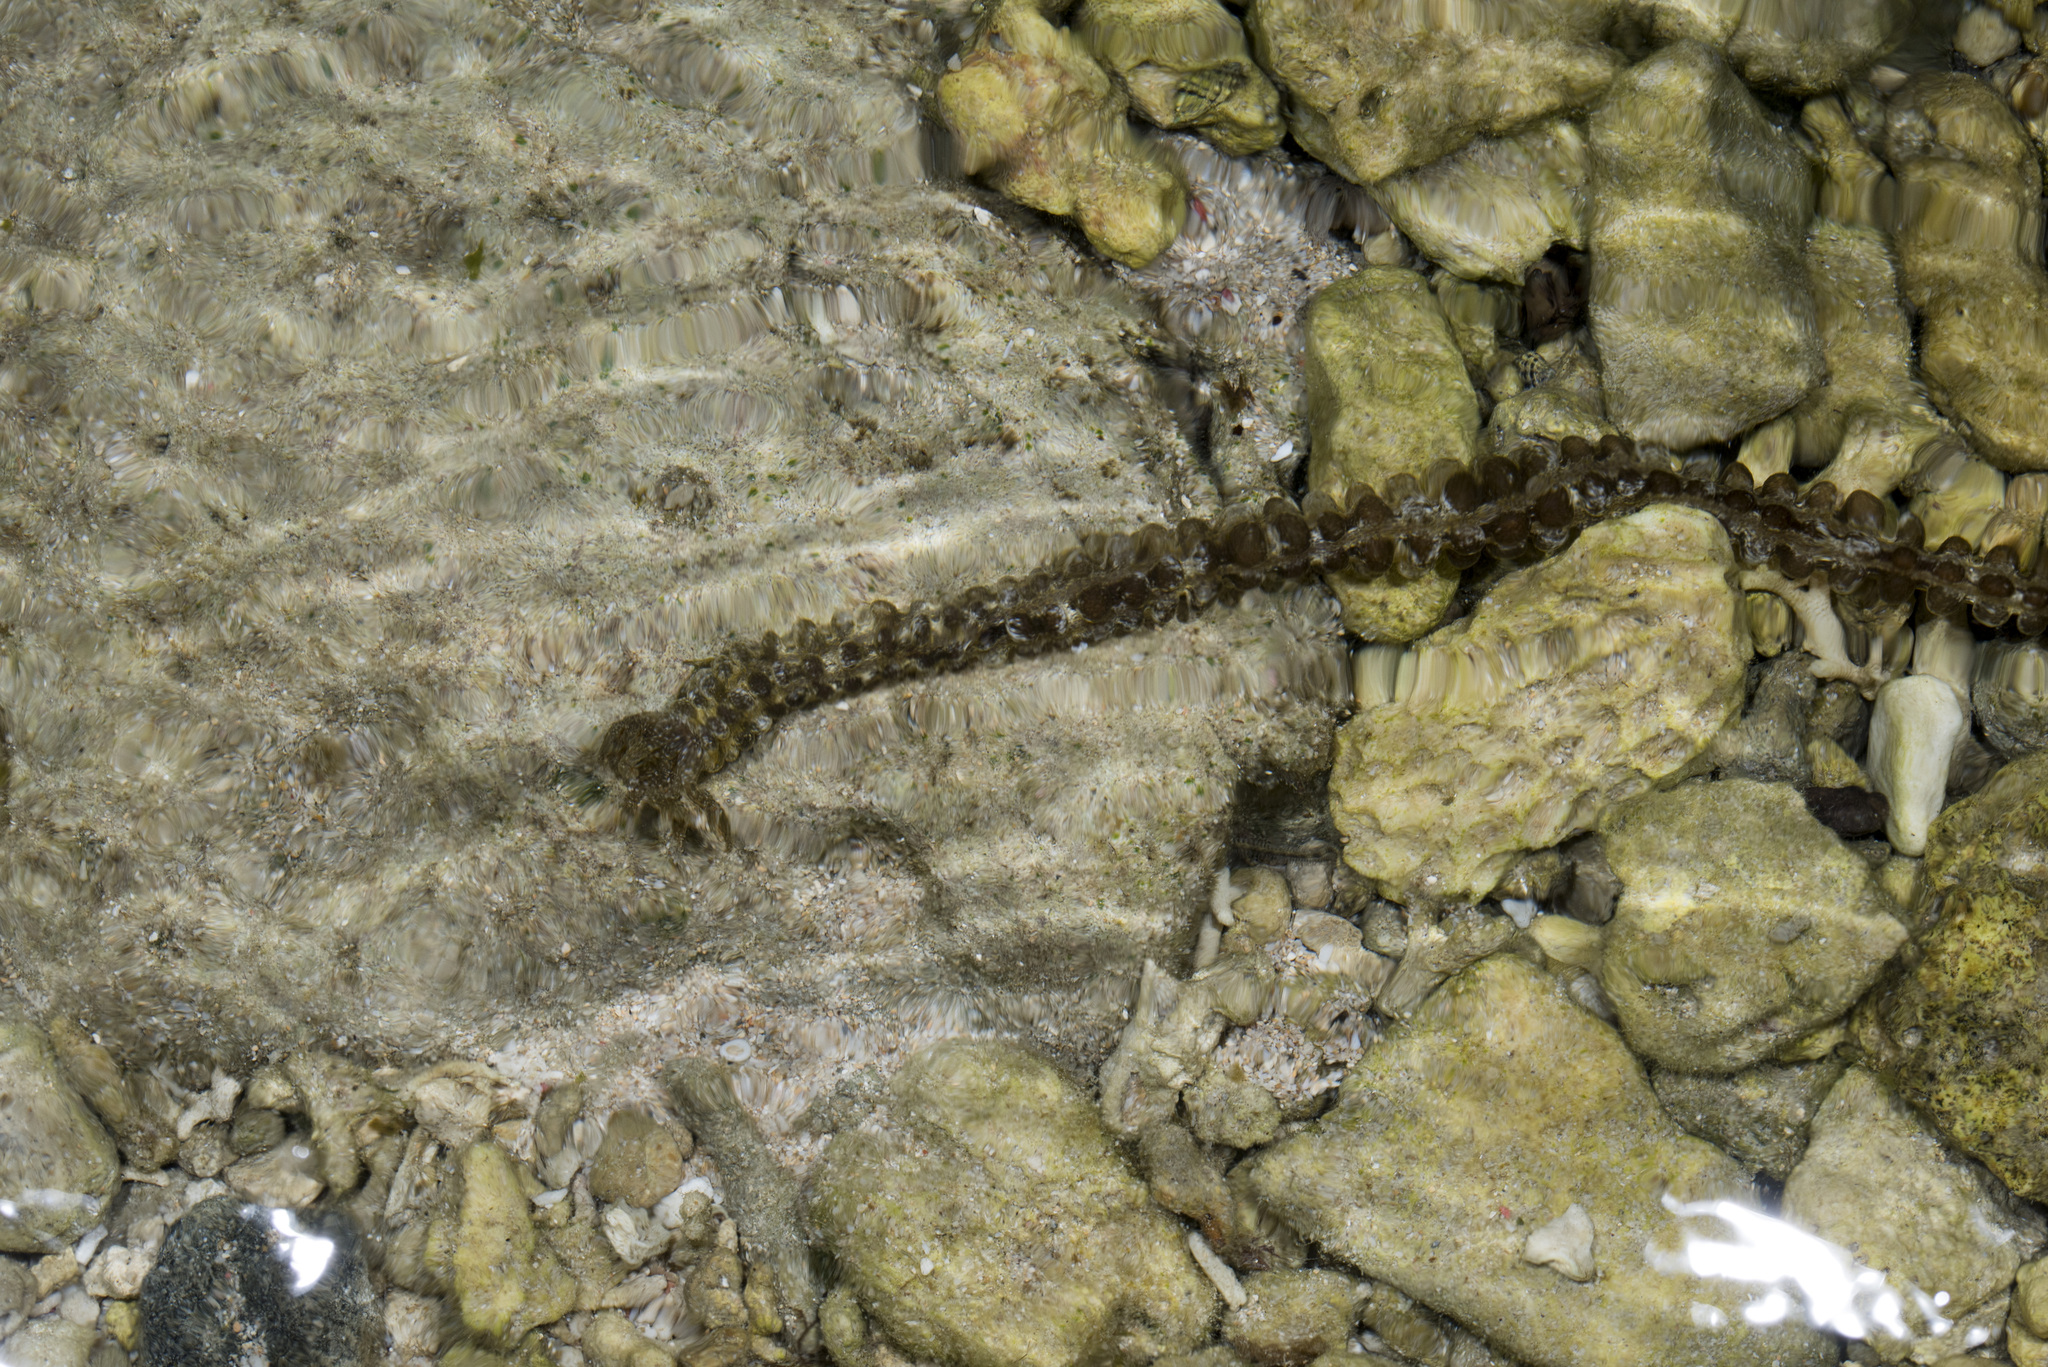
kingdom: Animalia
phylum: Echinodermata
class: Holothuroidea
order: Apodida
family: Synaptidae
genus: Synapta
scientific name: Synapta maculata
